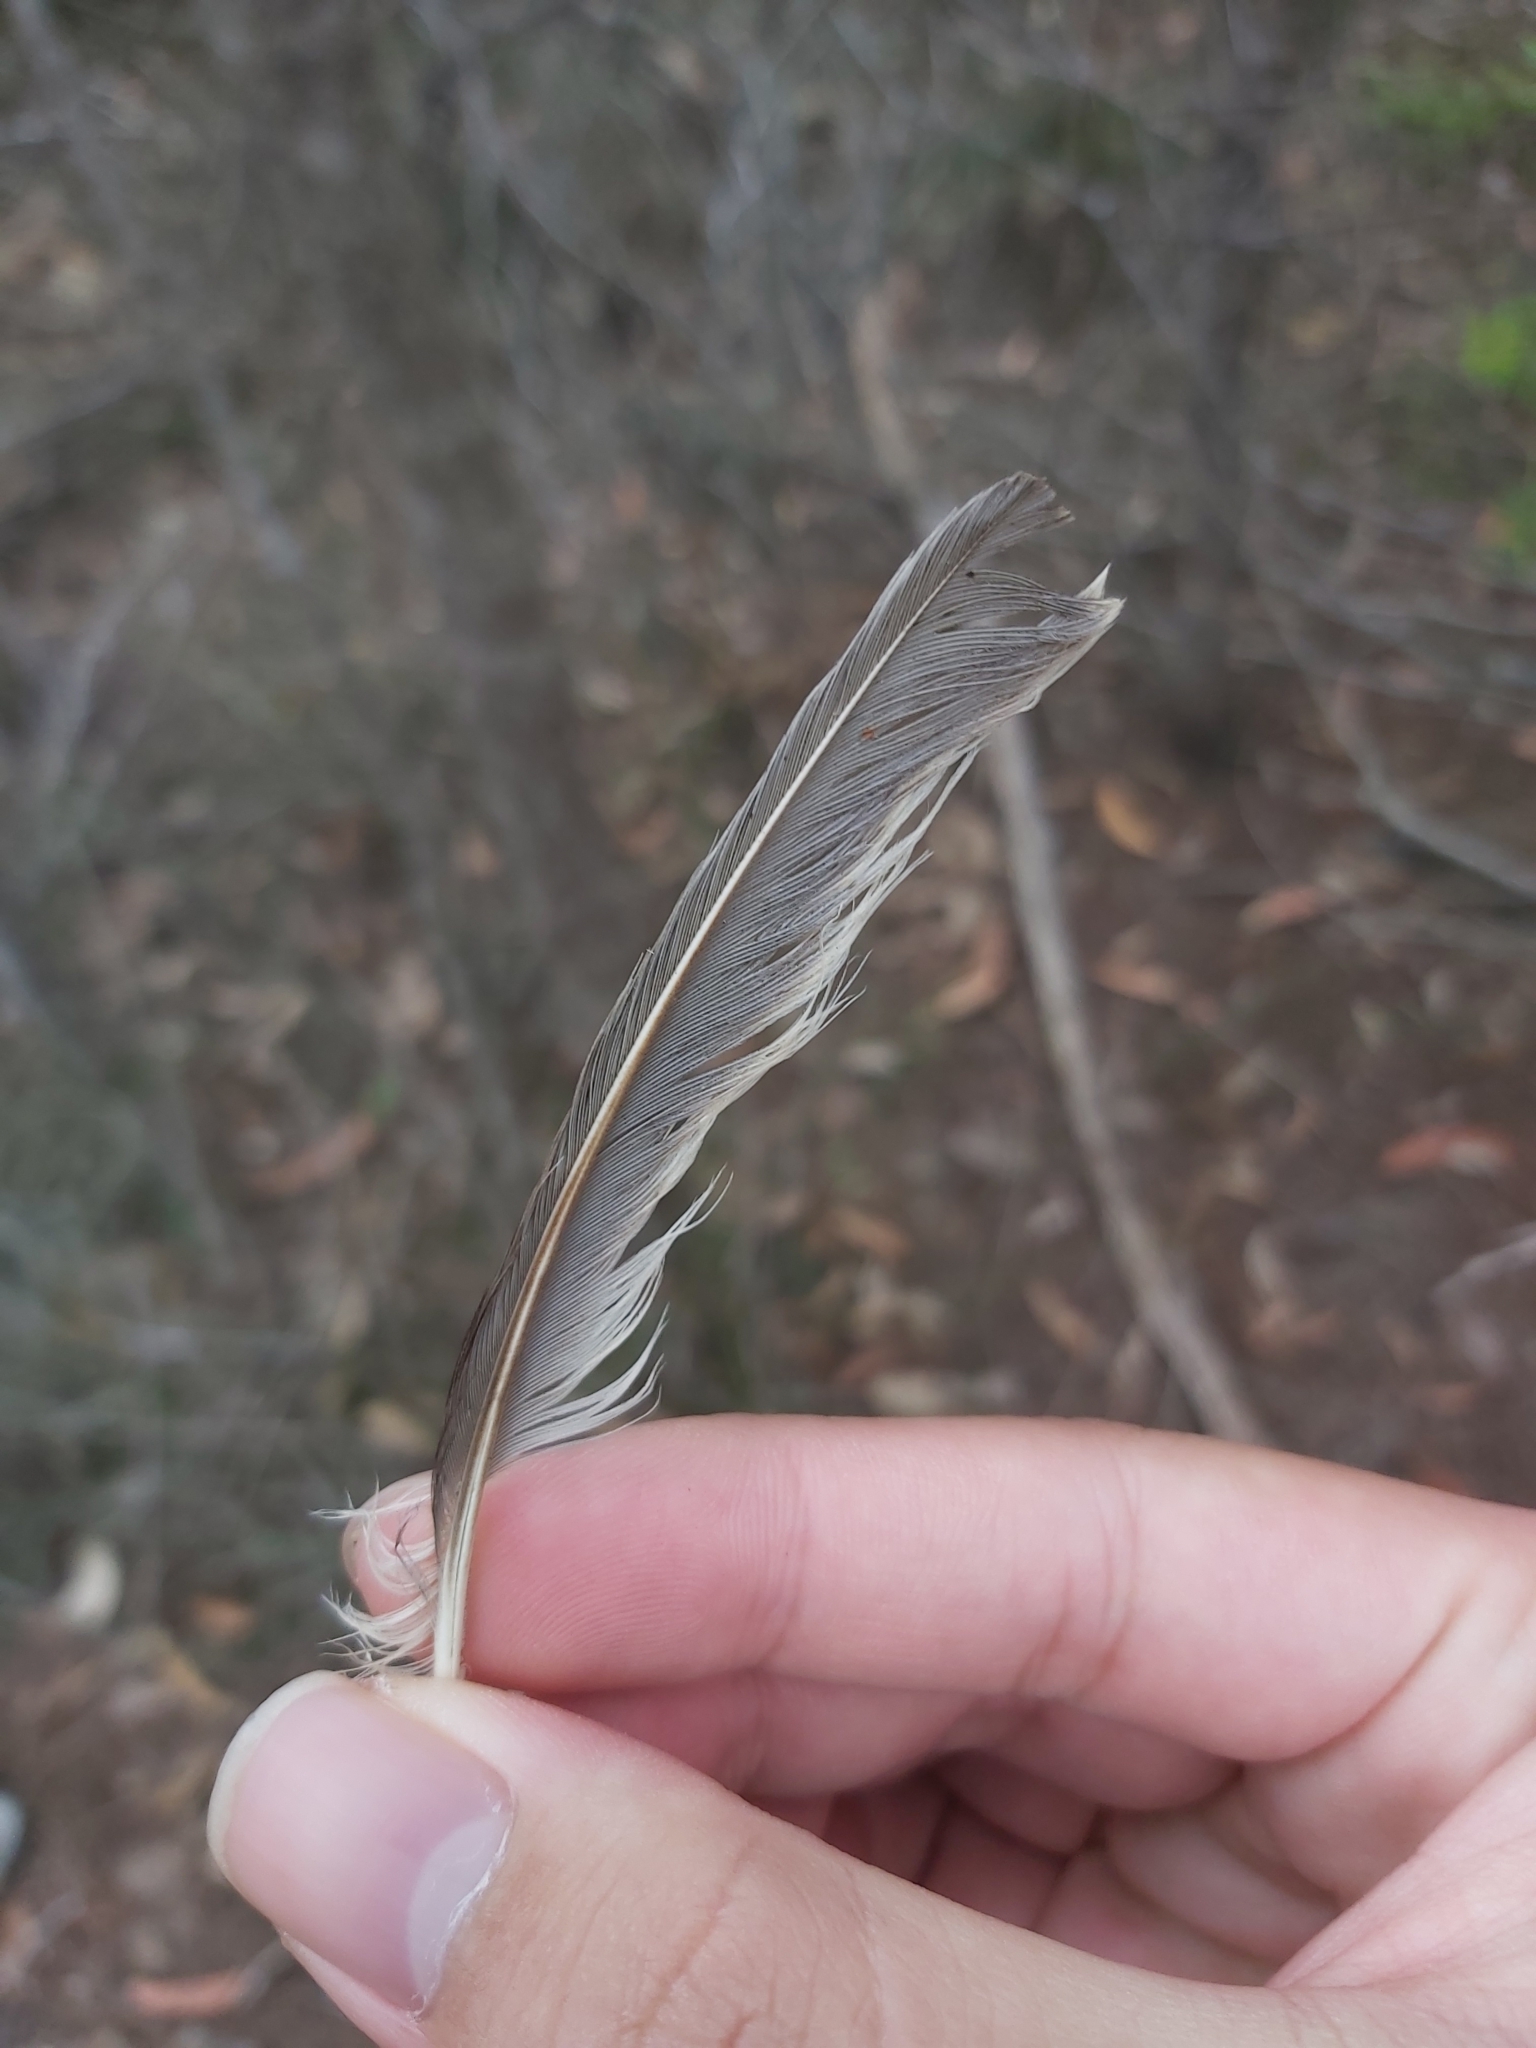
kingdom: Animalia
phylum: Chordata
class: Aves
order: Passeriformes
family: Meliphagidae
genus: Manorina
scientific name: Manorina melanocephala
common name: Noisy miner
